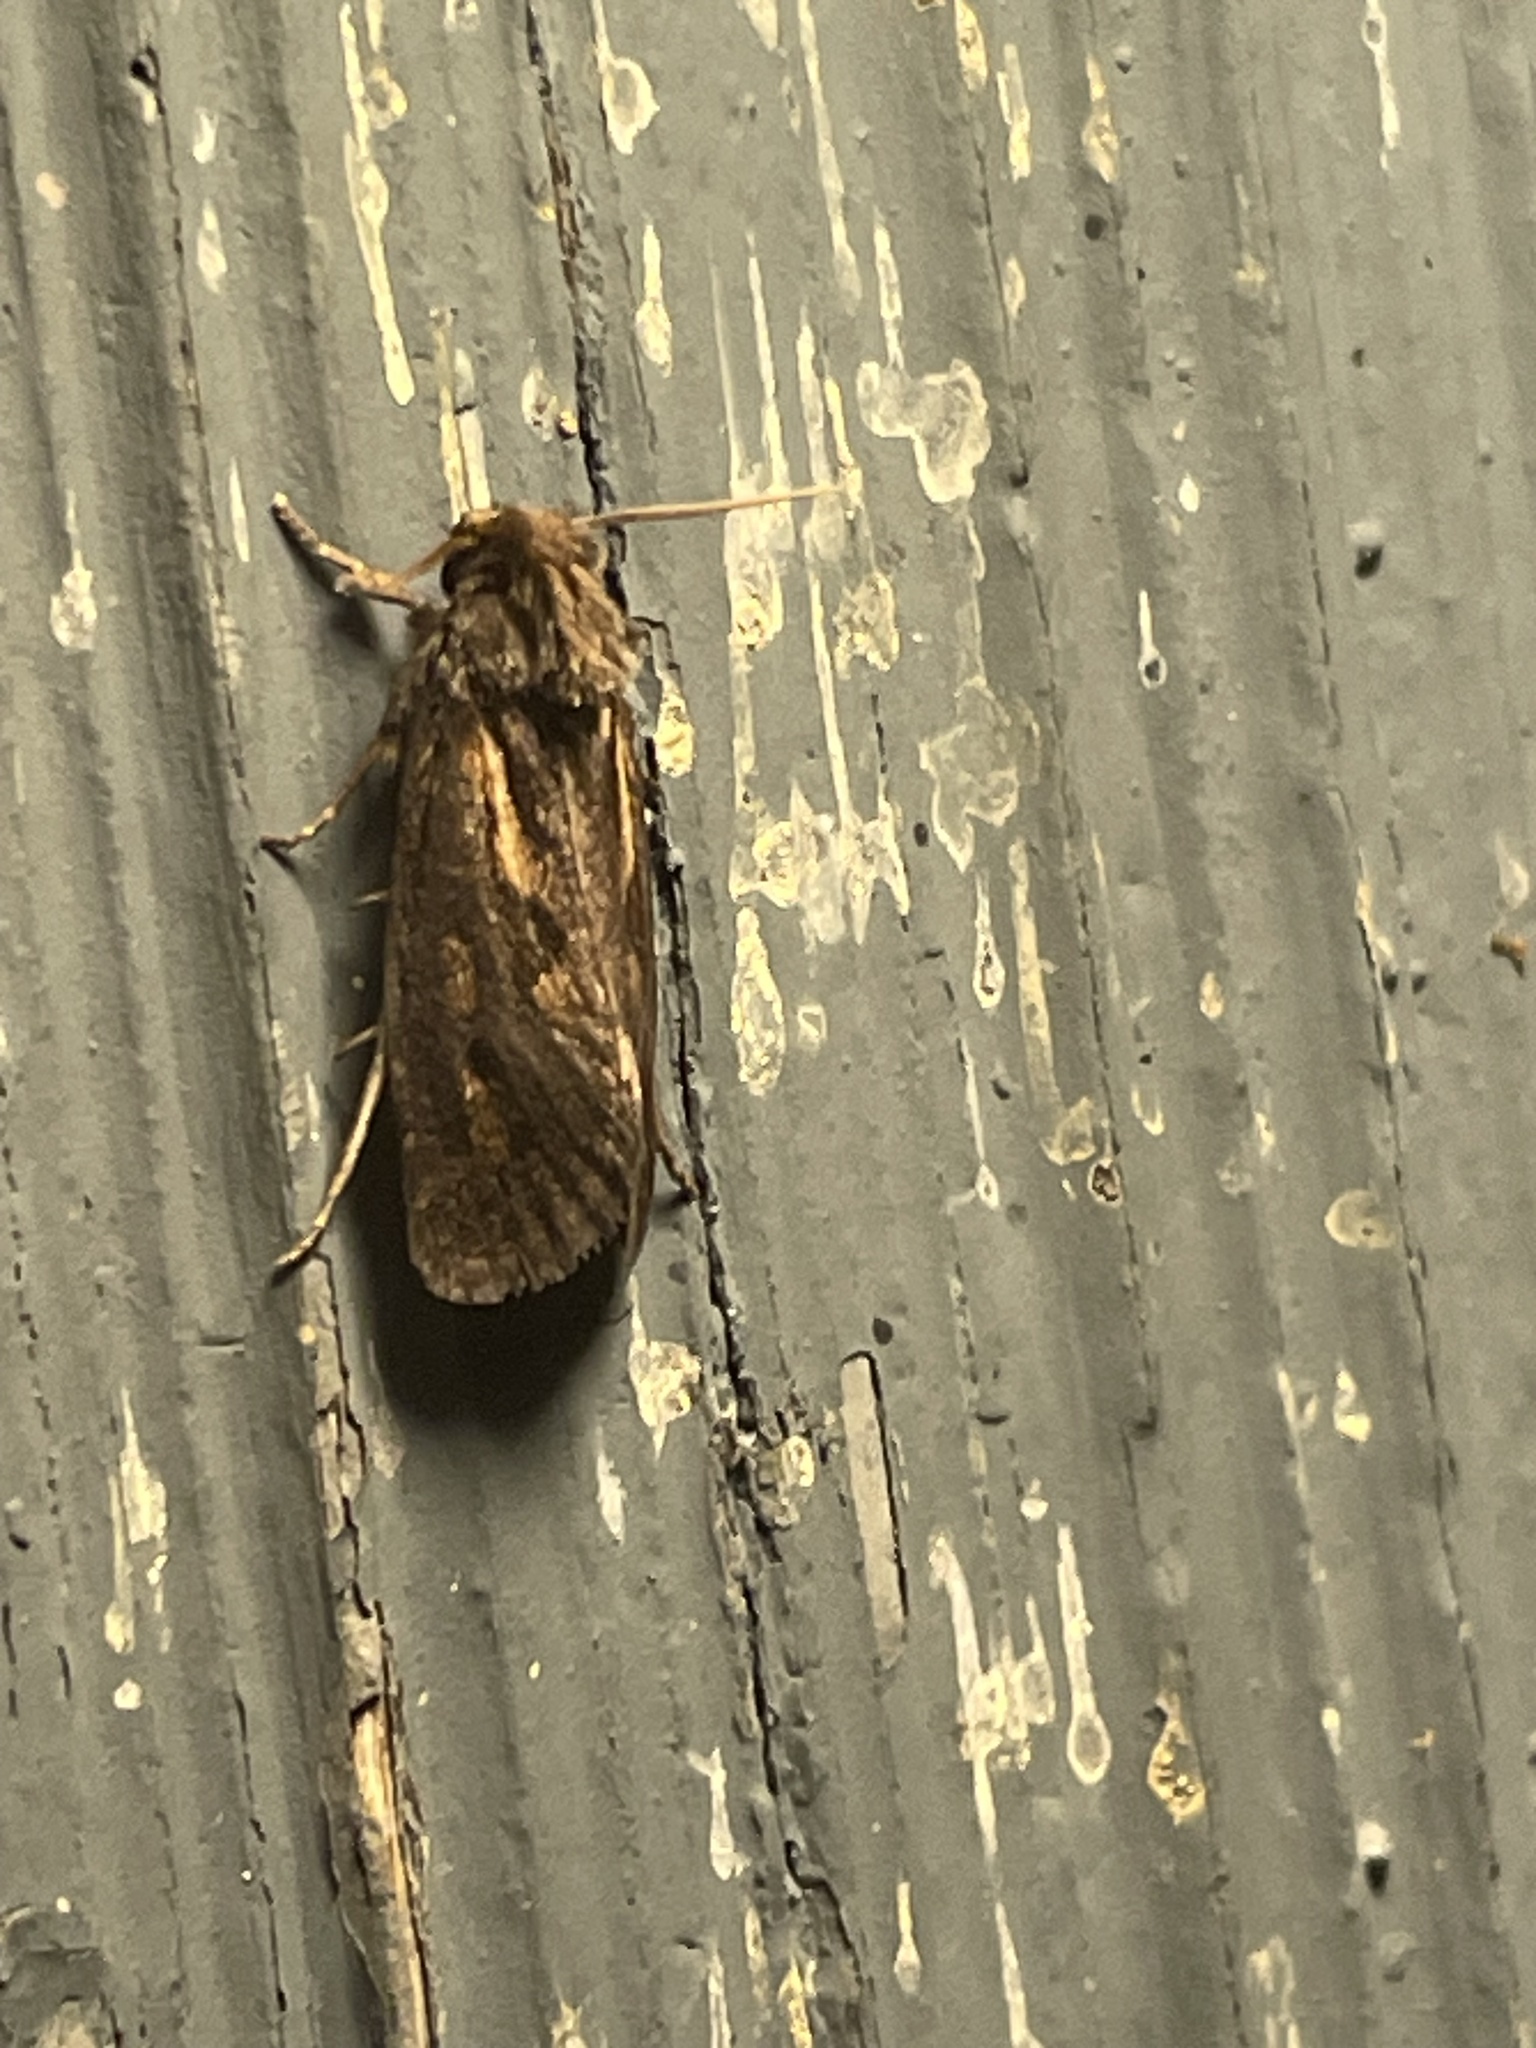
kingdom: Animalia
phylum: Arthropoda
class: Insecta
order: Lepidoptera
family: Tineidae
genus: Acrolophus
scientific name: Acrolophus popeanella
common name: Clemens' grass tubeworm moth
